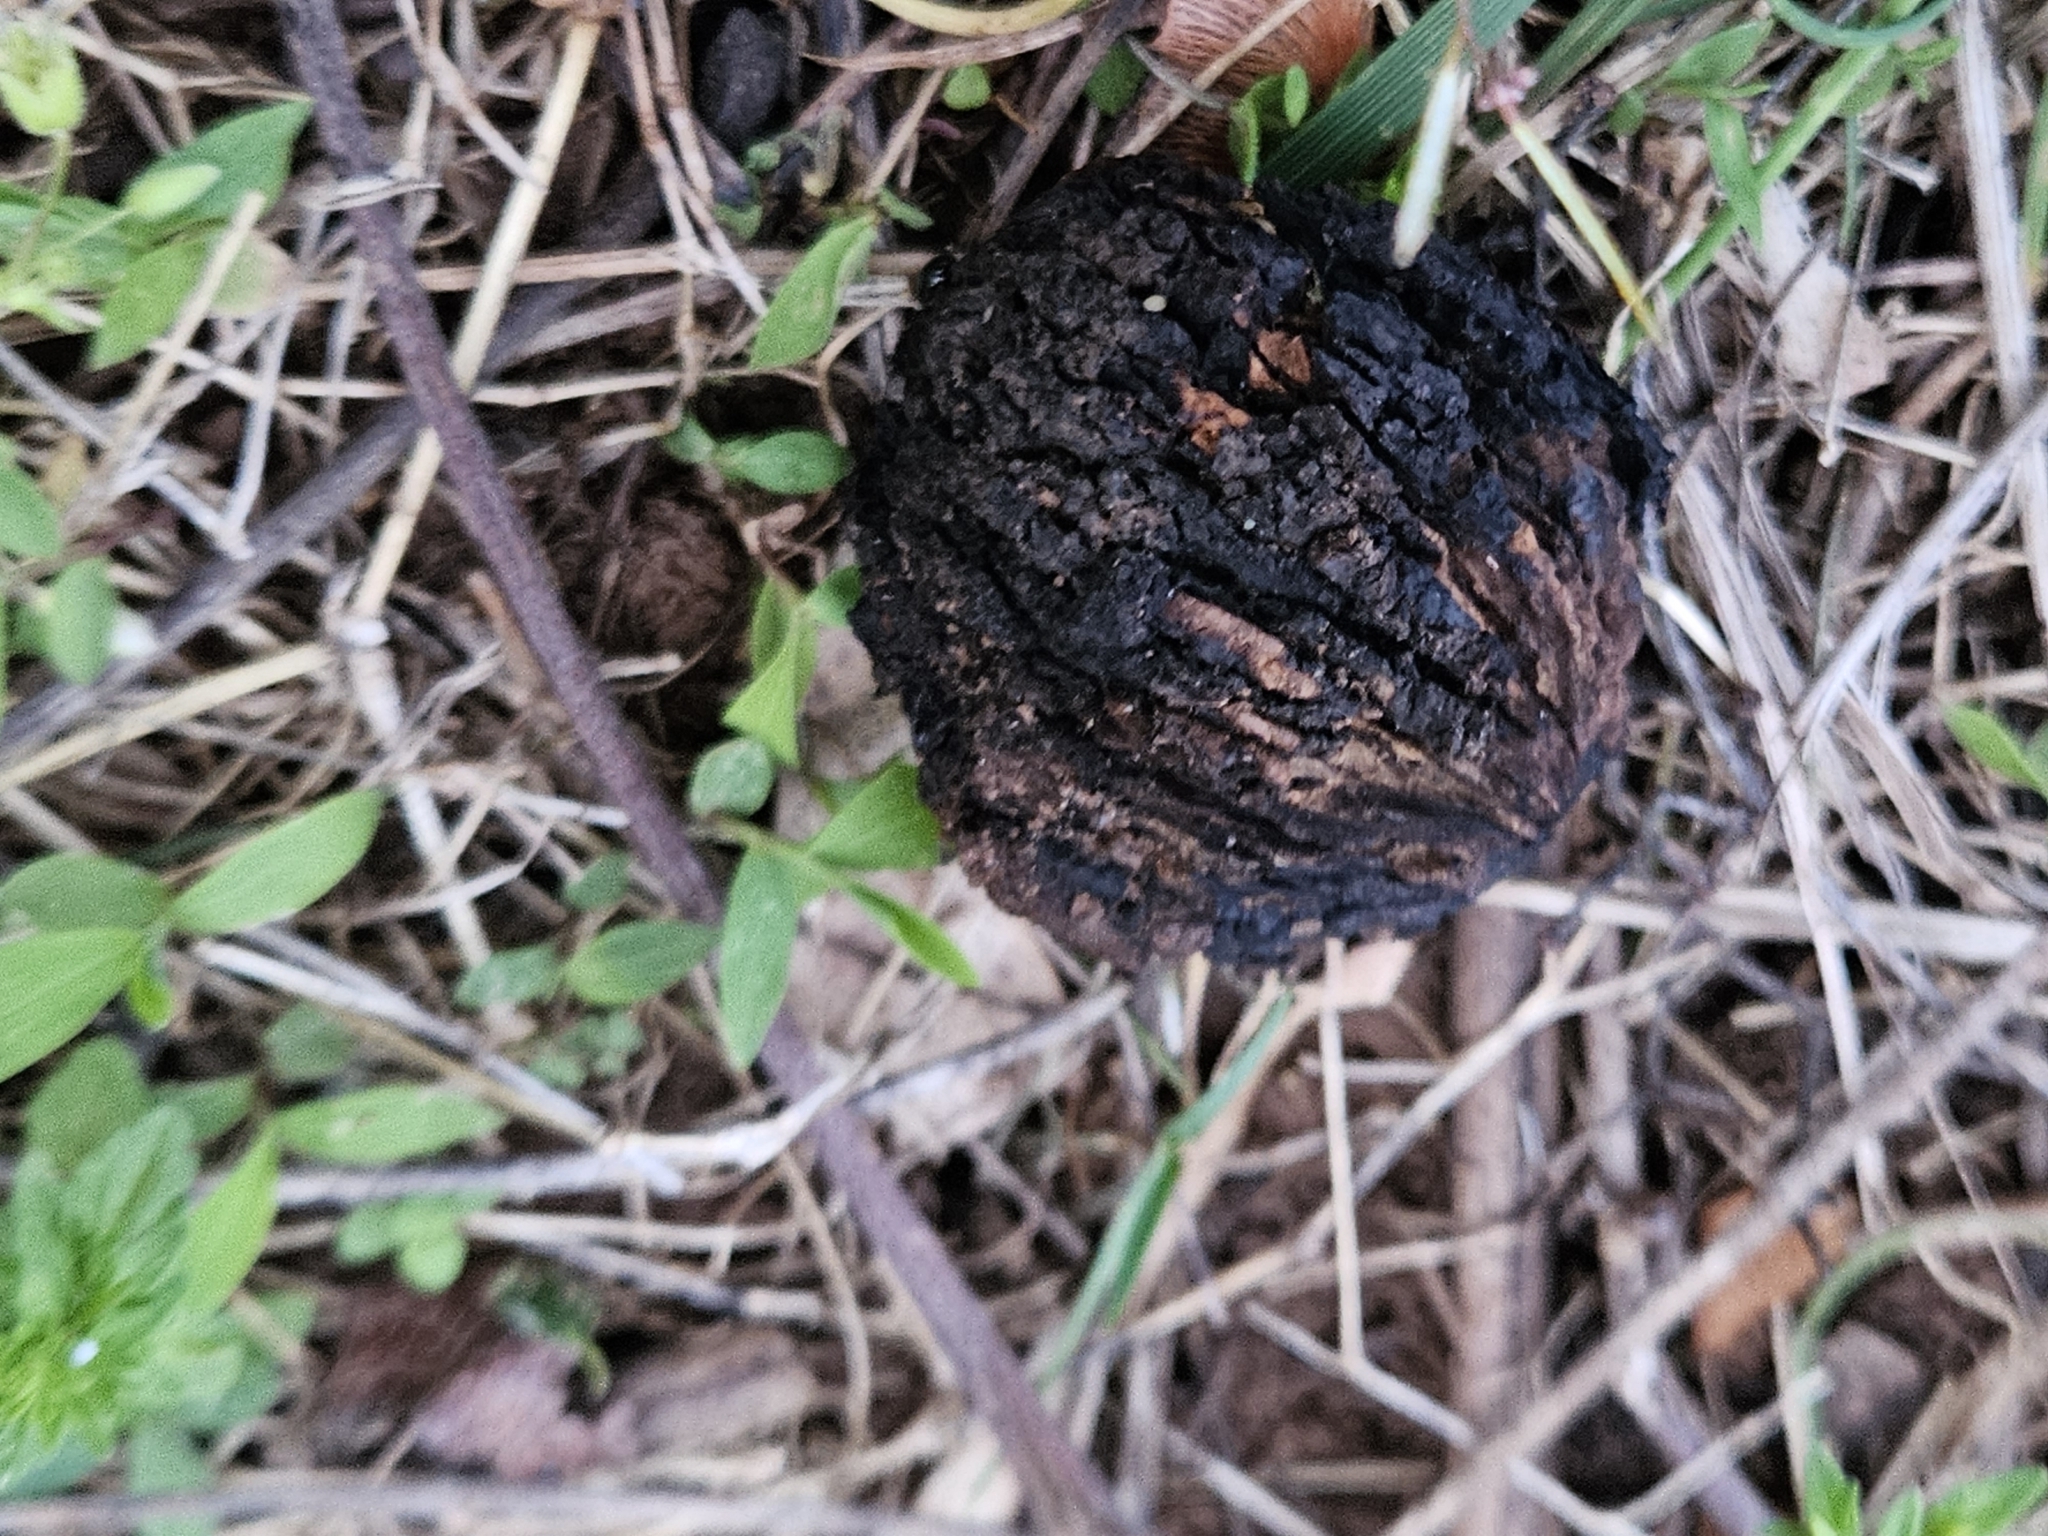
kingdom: Plantae
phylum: Tracheophyta
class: Magnoliopsida
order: Fagales
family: Juglandaceae
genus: Juglans
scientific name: Juglans nigra
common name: Black walnut
